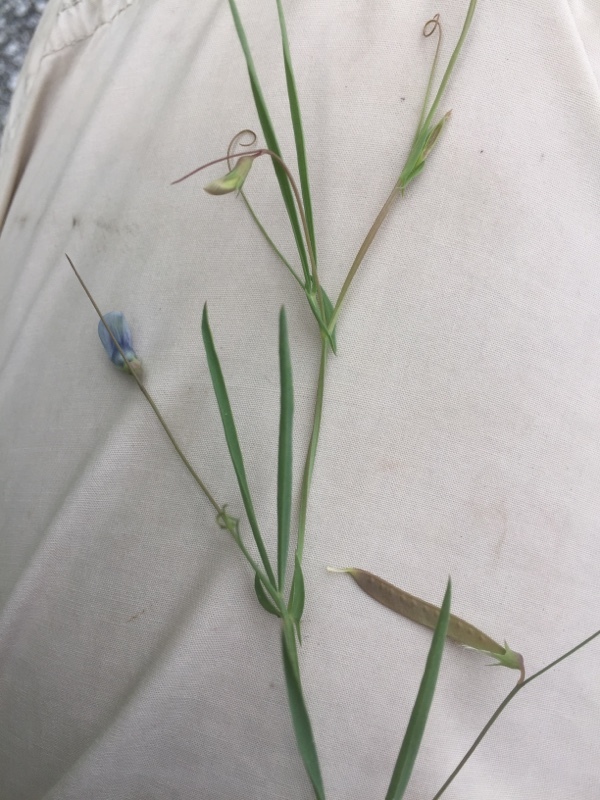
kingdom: Plantae
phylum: Tracheophyta
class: Magnoliopsida
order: Fabales
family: Fabaceae
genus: Lathyrus
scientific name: Lathyrus angulatus
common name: Angular pea
